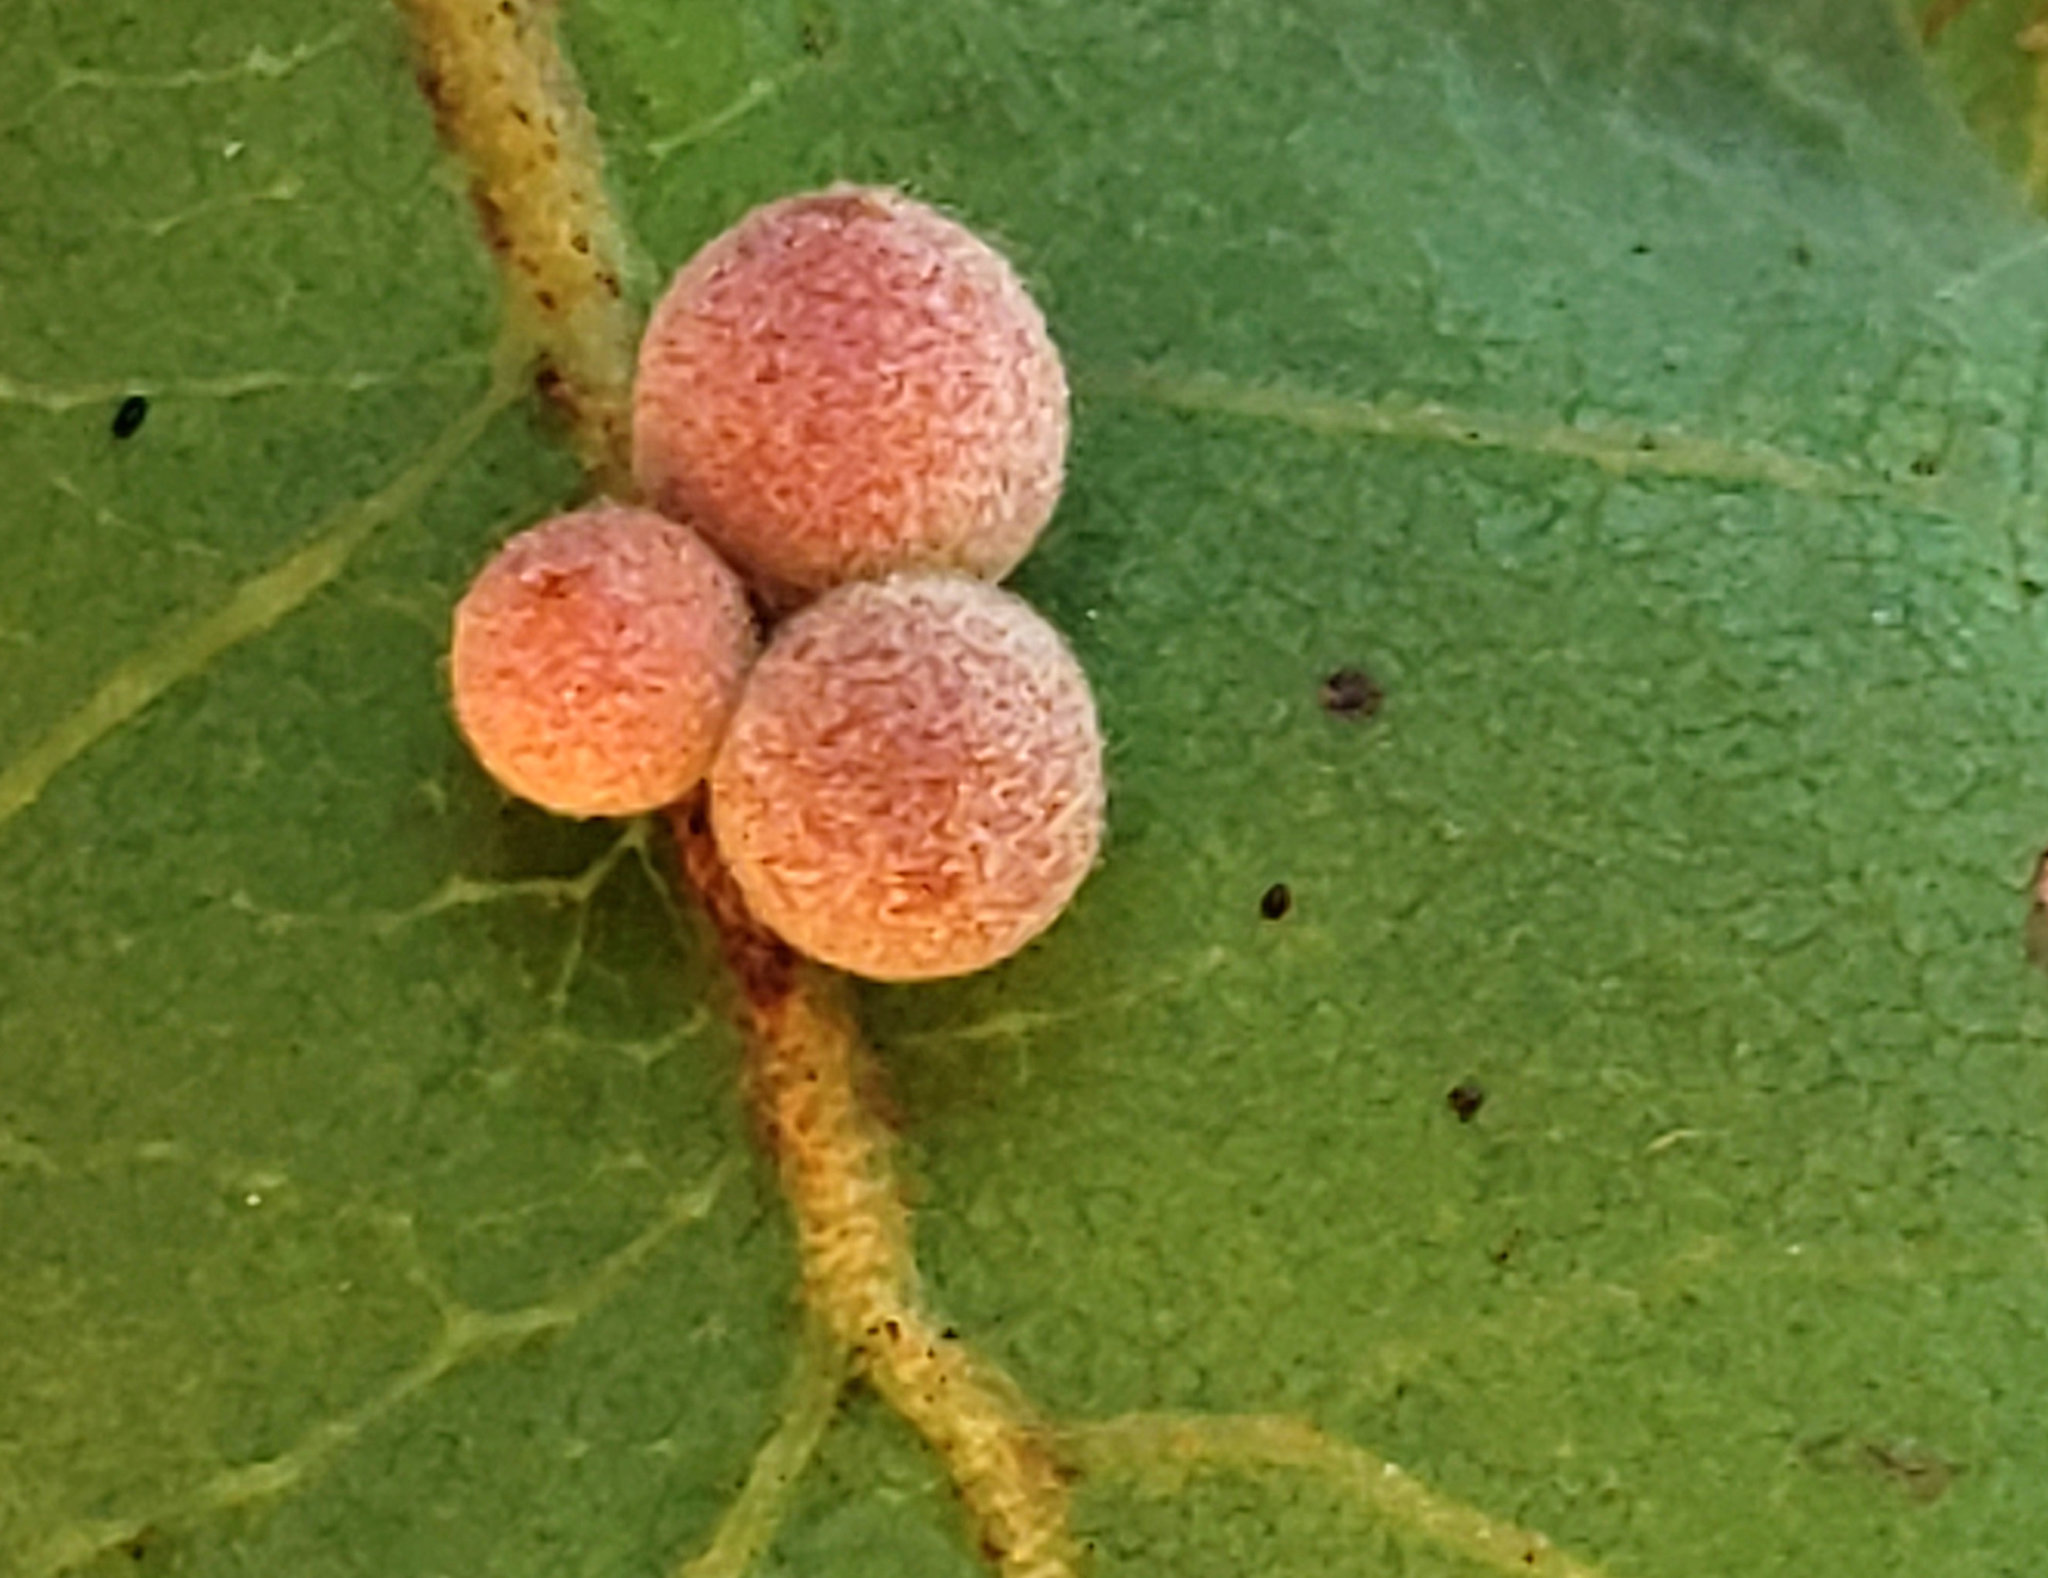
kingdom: Animalia
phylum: Arthropoda
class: Insecta
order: Hymenoptera
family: Cynipidae
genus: Andricus
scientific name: Andricus
